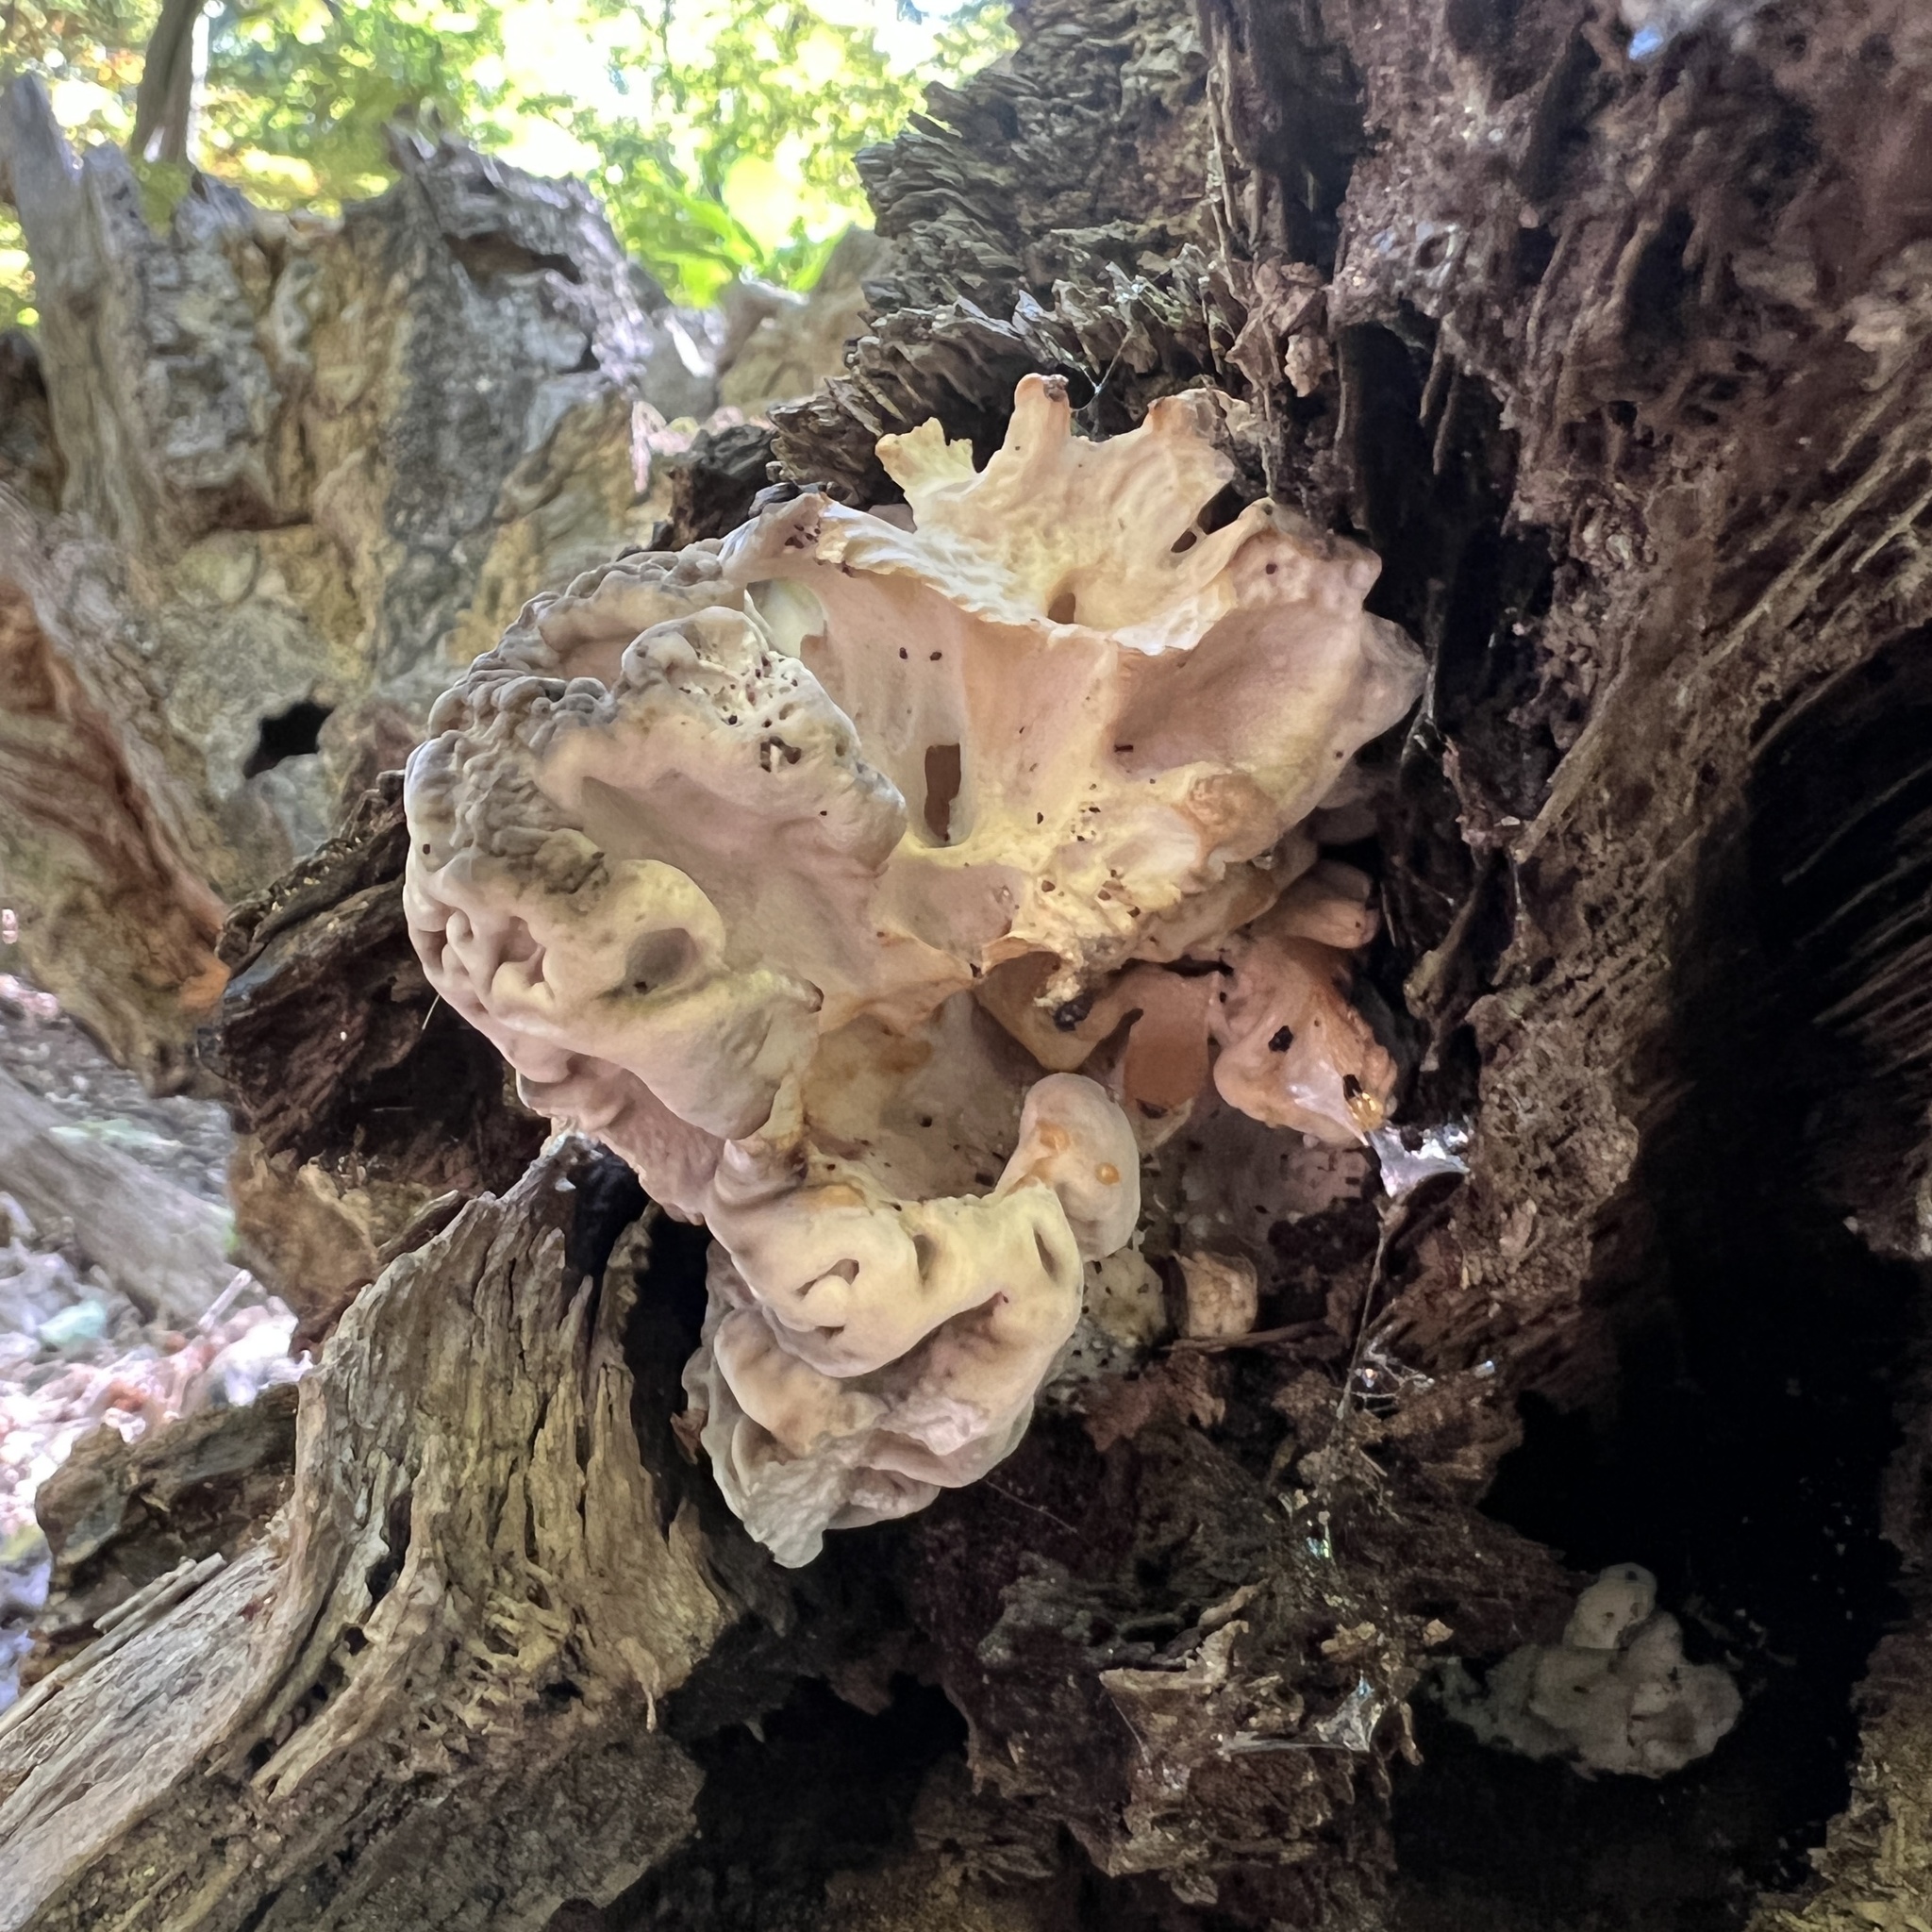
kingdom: Fungi
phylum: Basidiomycota
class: Agaricomycetes
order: Polyporales
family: Grifolaceae
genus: Grifola
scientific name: Grifola frondosa
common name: Hen of the woods
